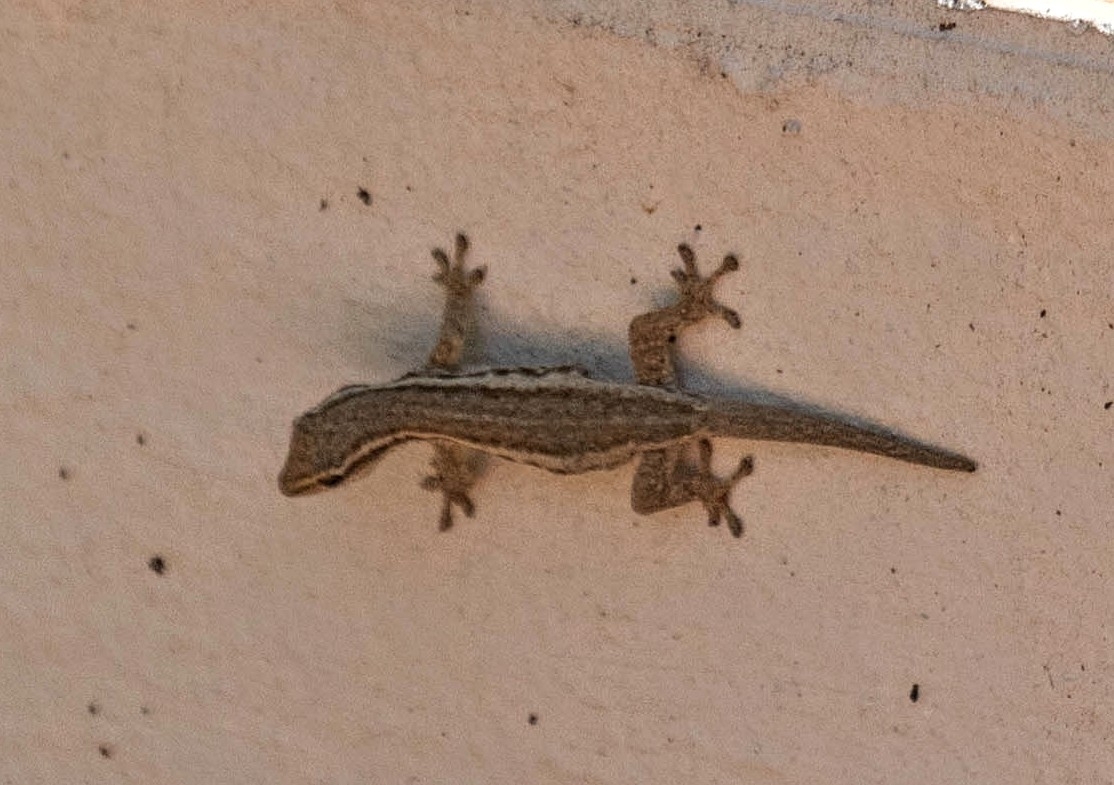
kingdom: Animalia
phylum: Chordata
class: Squamata
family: Gekkonidae
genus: Lygodactylus
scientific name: Lygodactylus capensis
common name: Cape dwarf gecko
